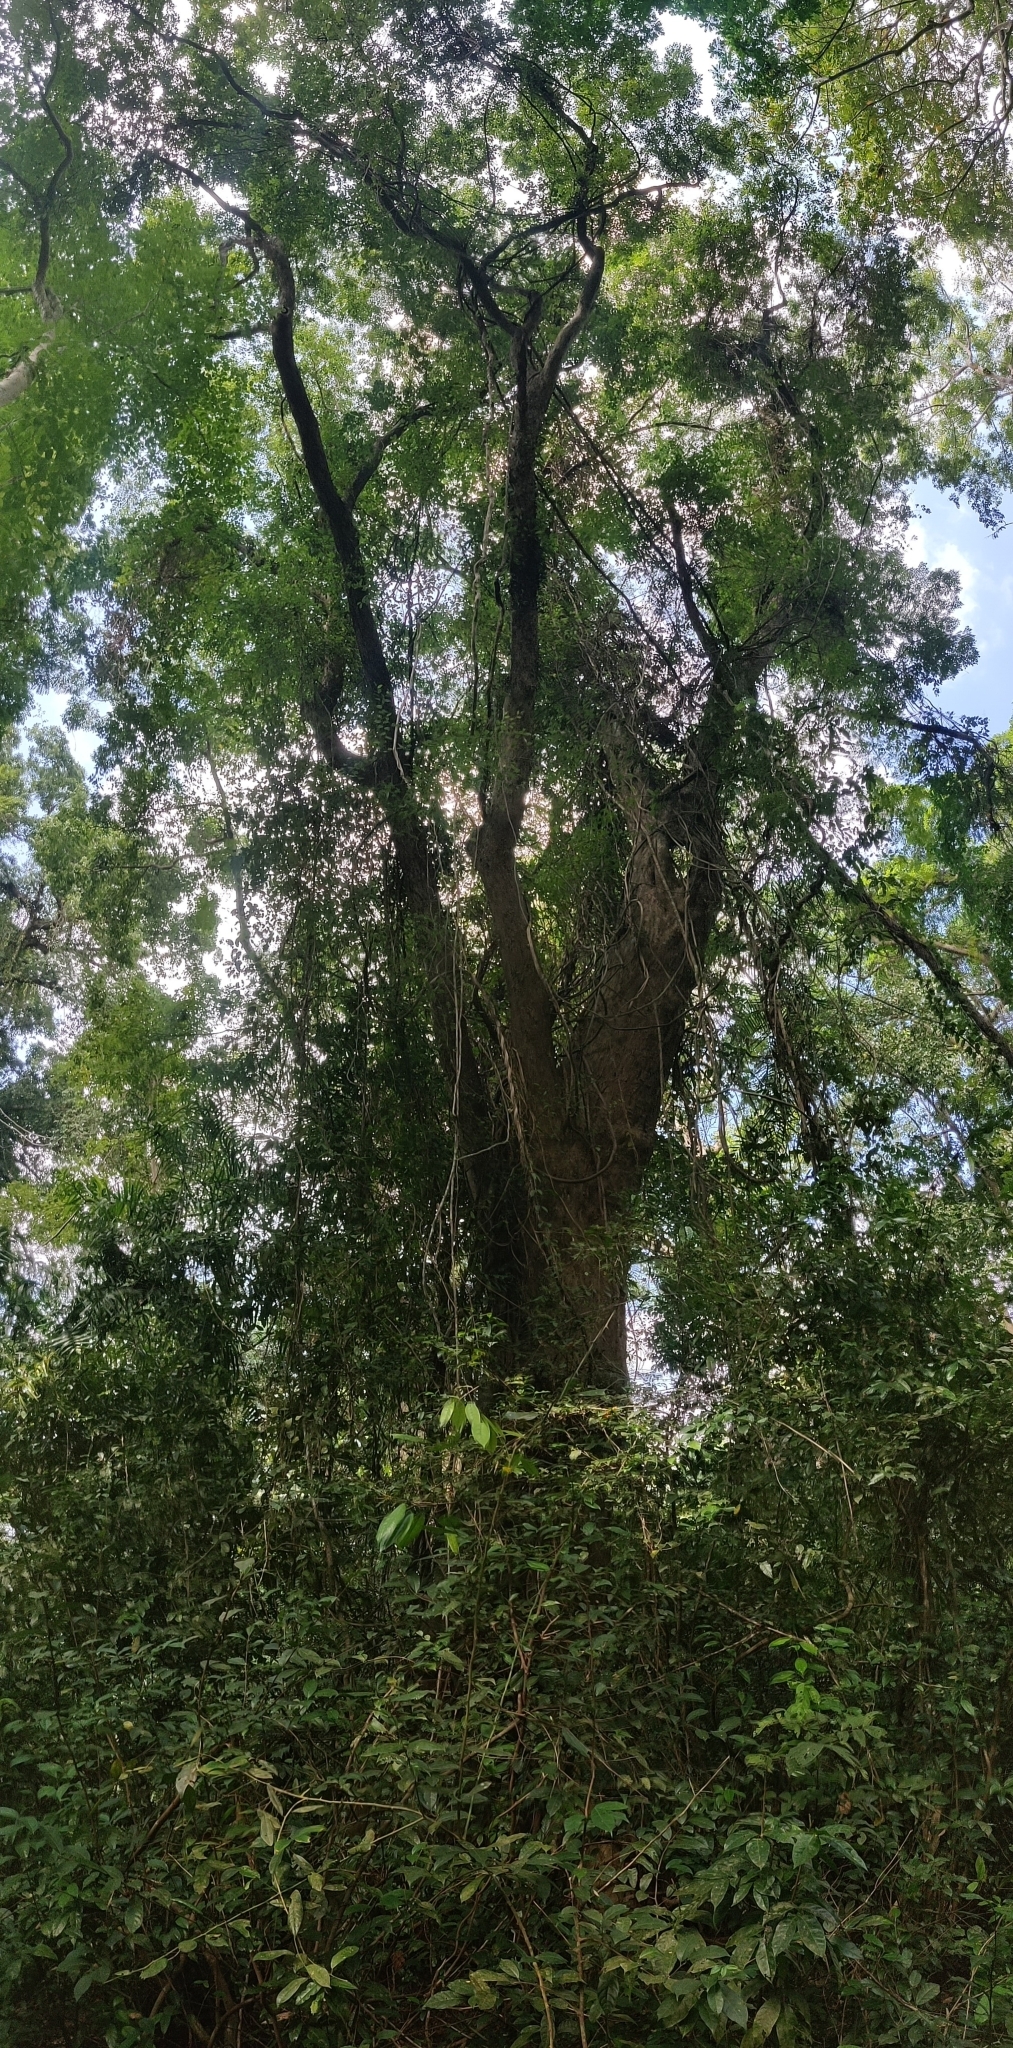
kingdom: Plantae
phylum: Tracheophyta
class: Magnoliopsida
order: Fabales
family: Fabaceae
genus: Pterocarpus
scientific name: Pterocarpus dalbergioides
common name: Andaman redwood
